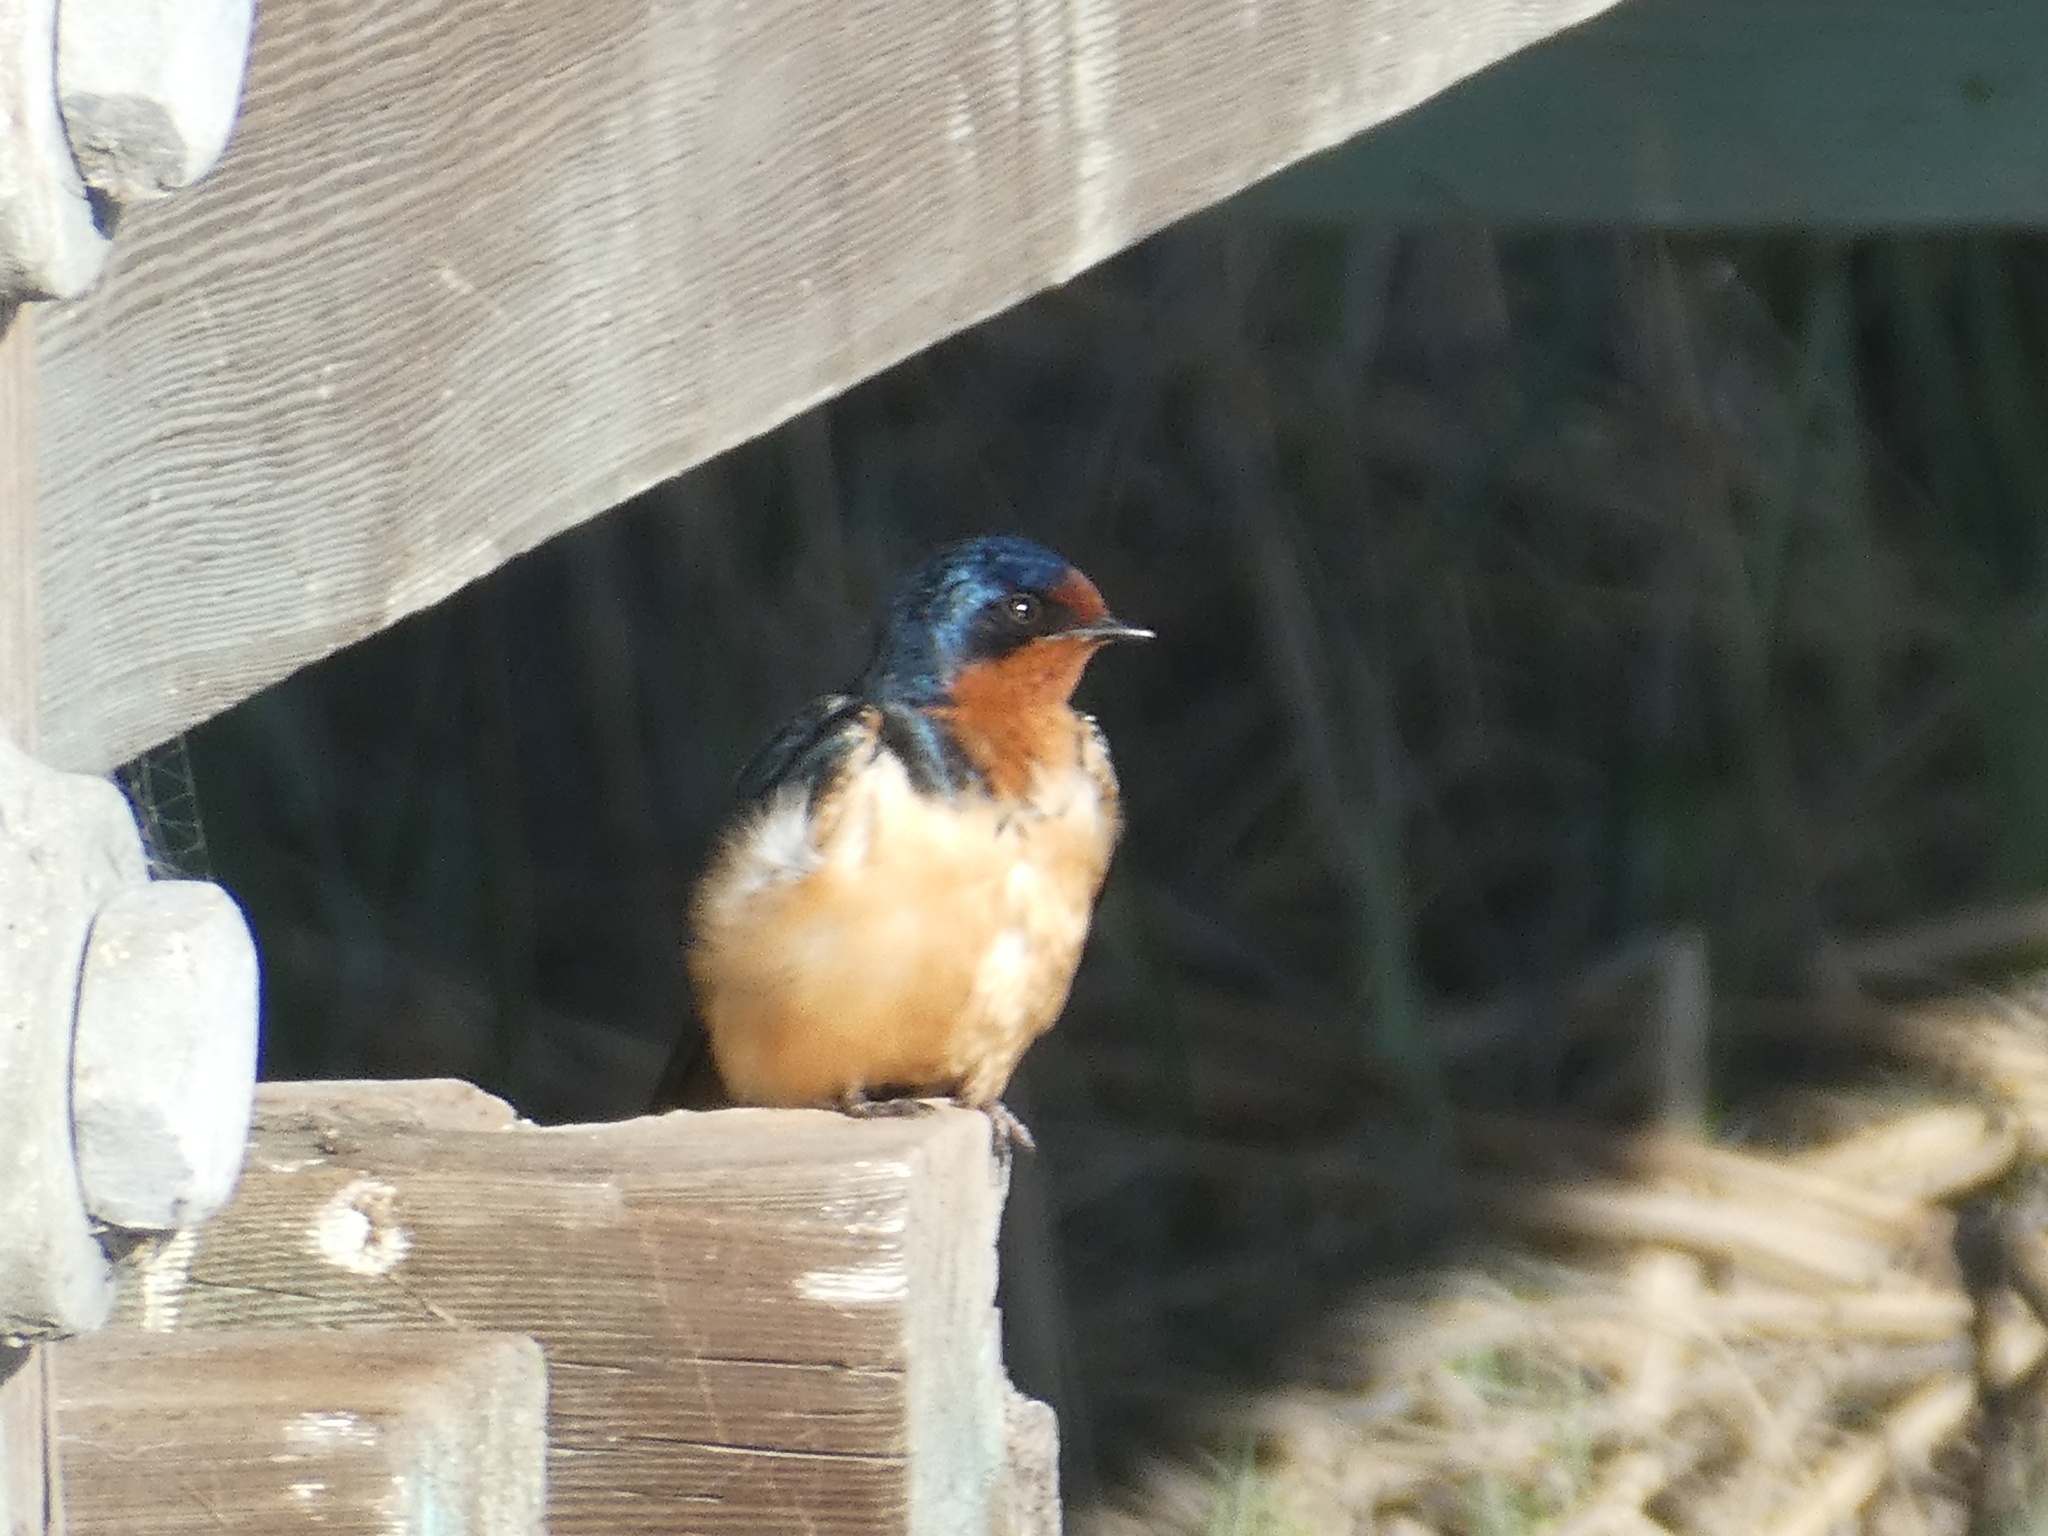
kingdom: Animalia
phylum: Chordata
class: Aves
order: Passeriformes
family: Hirundinidae
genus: Hirundo
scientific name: Hirundo rustica
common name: Barn swallow
